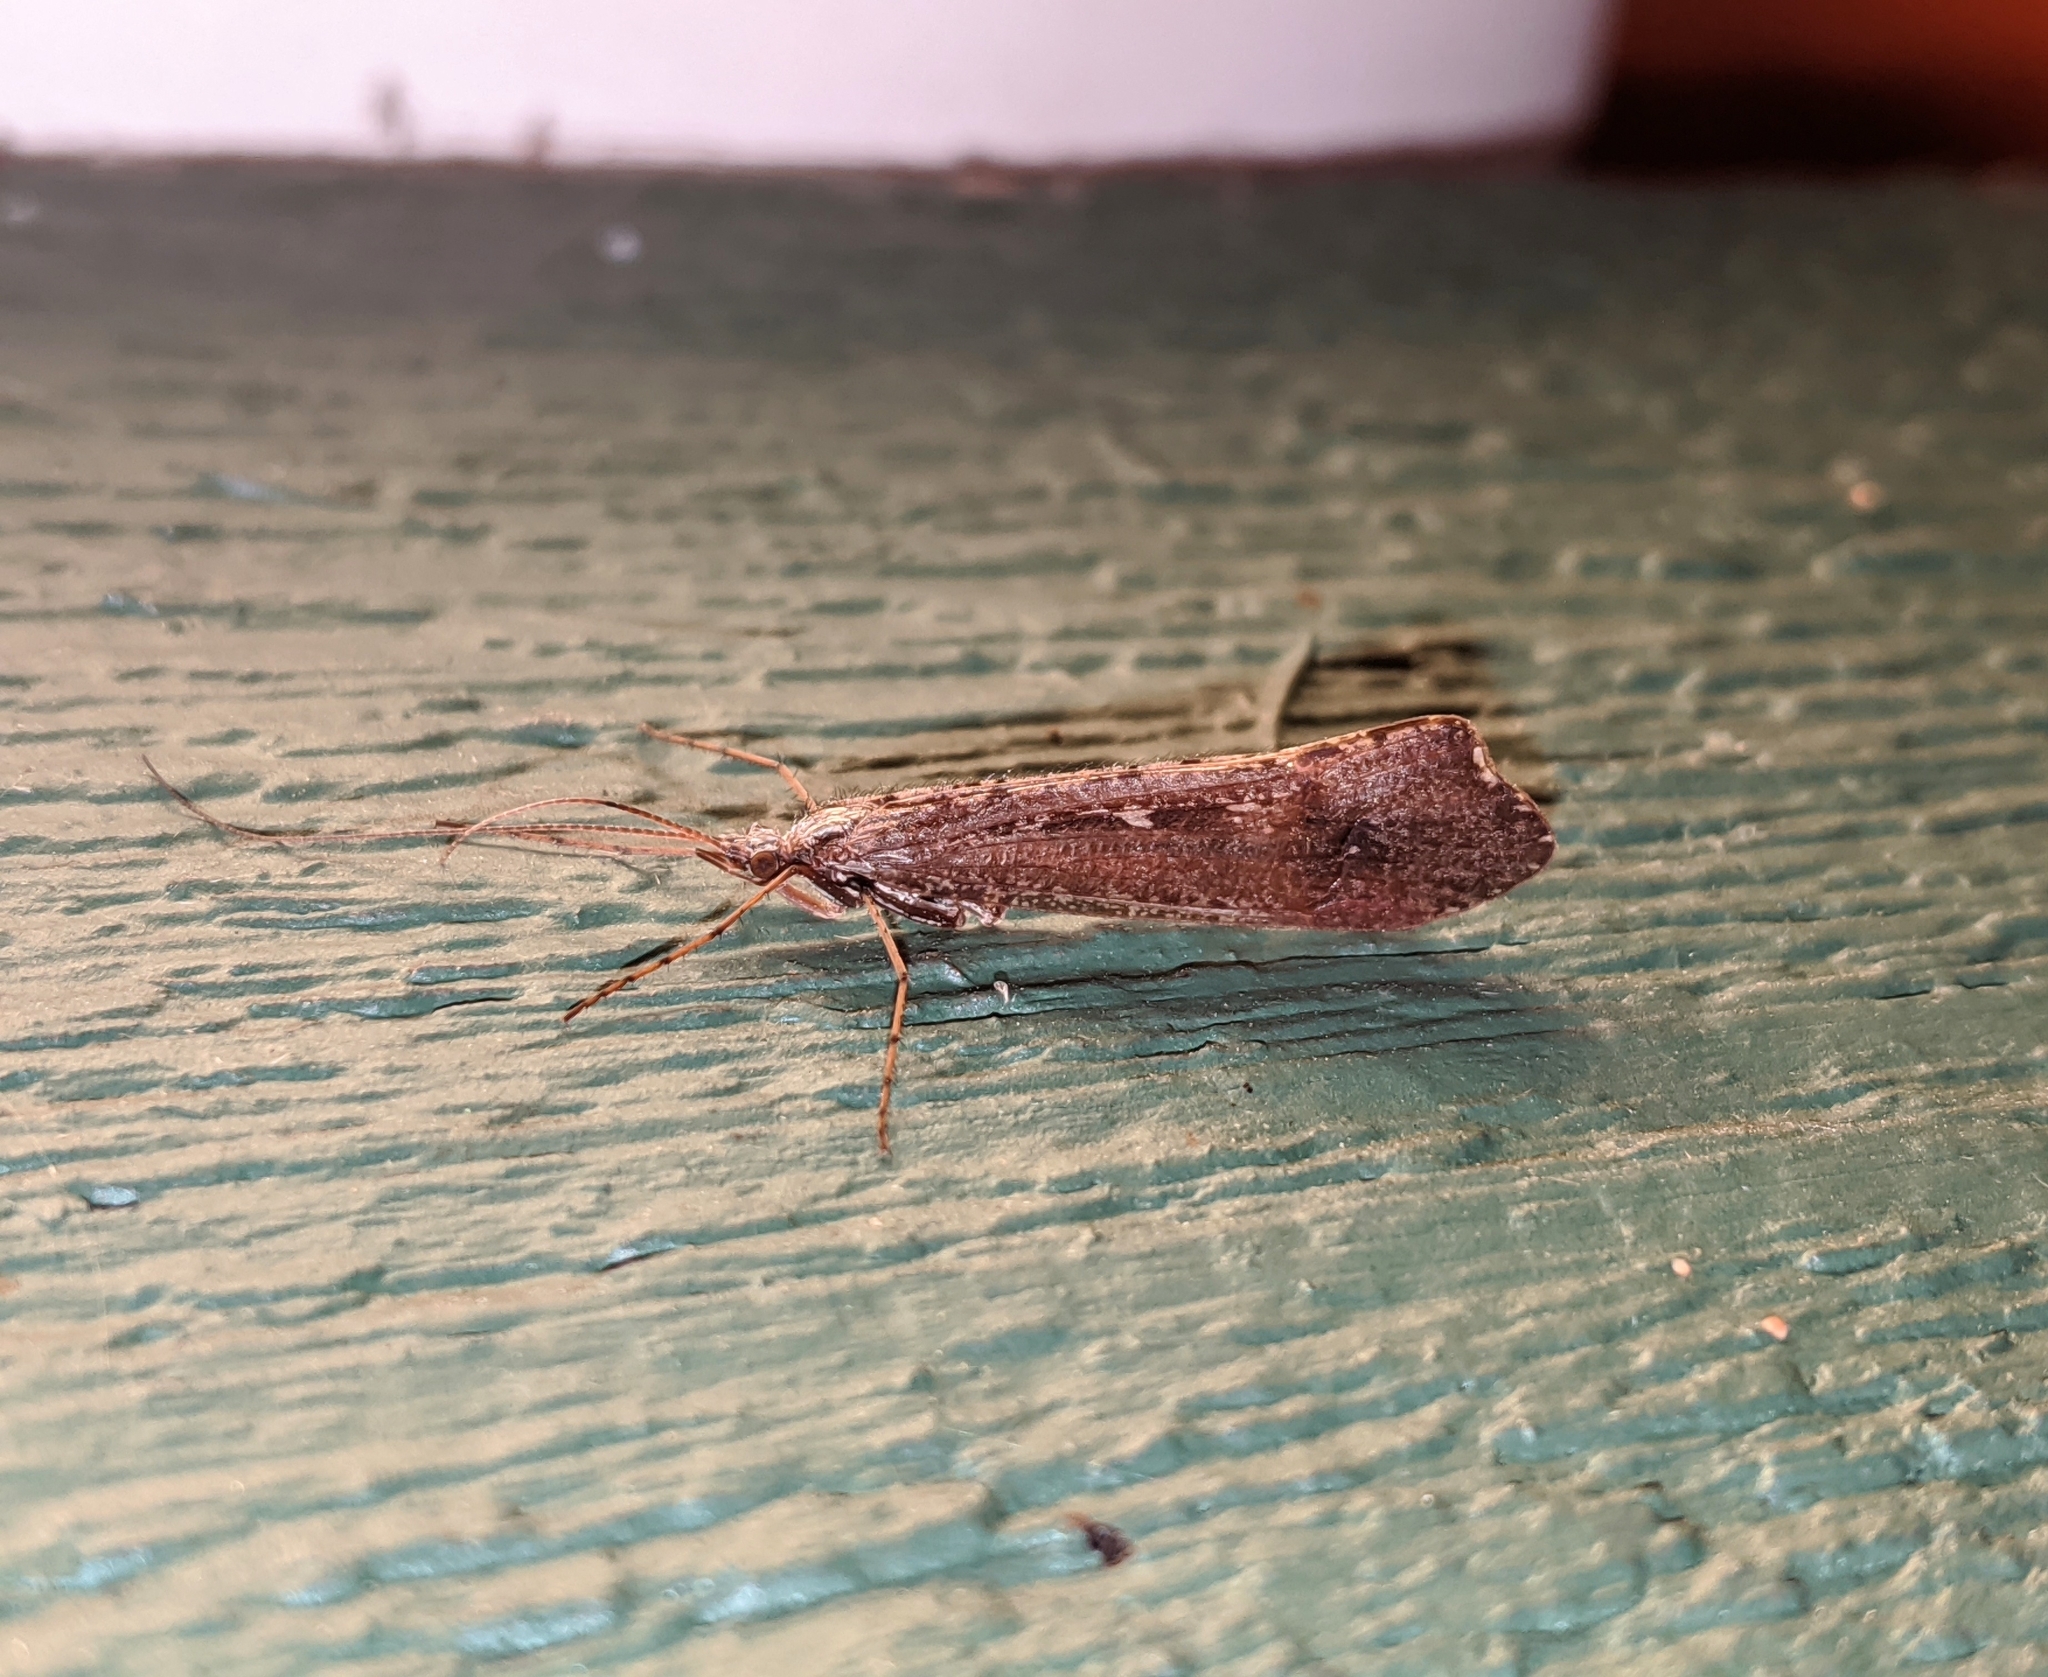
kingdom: Animalia
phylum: Arthropoda
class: Insecta
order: Trichoptera
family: Limnephilidae
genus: Glyphopsyche
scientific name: Glyphopsyche irrorata
